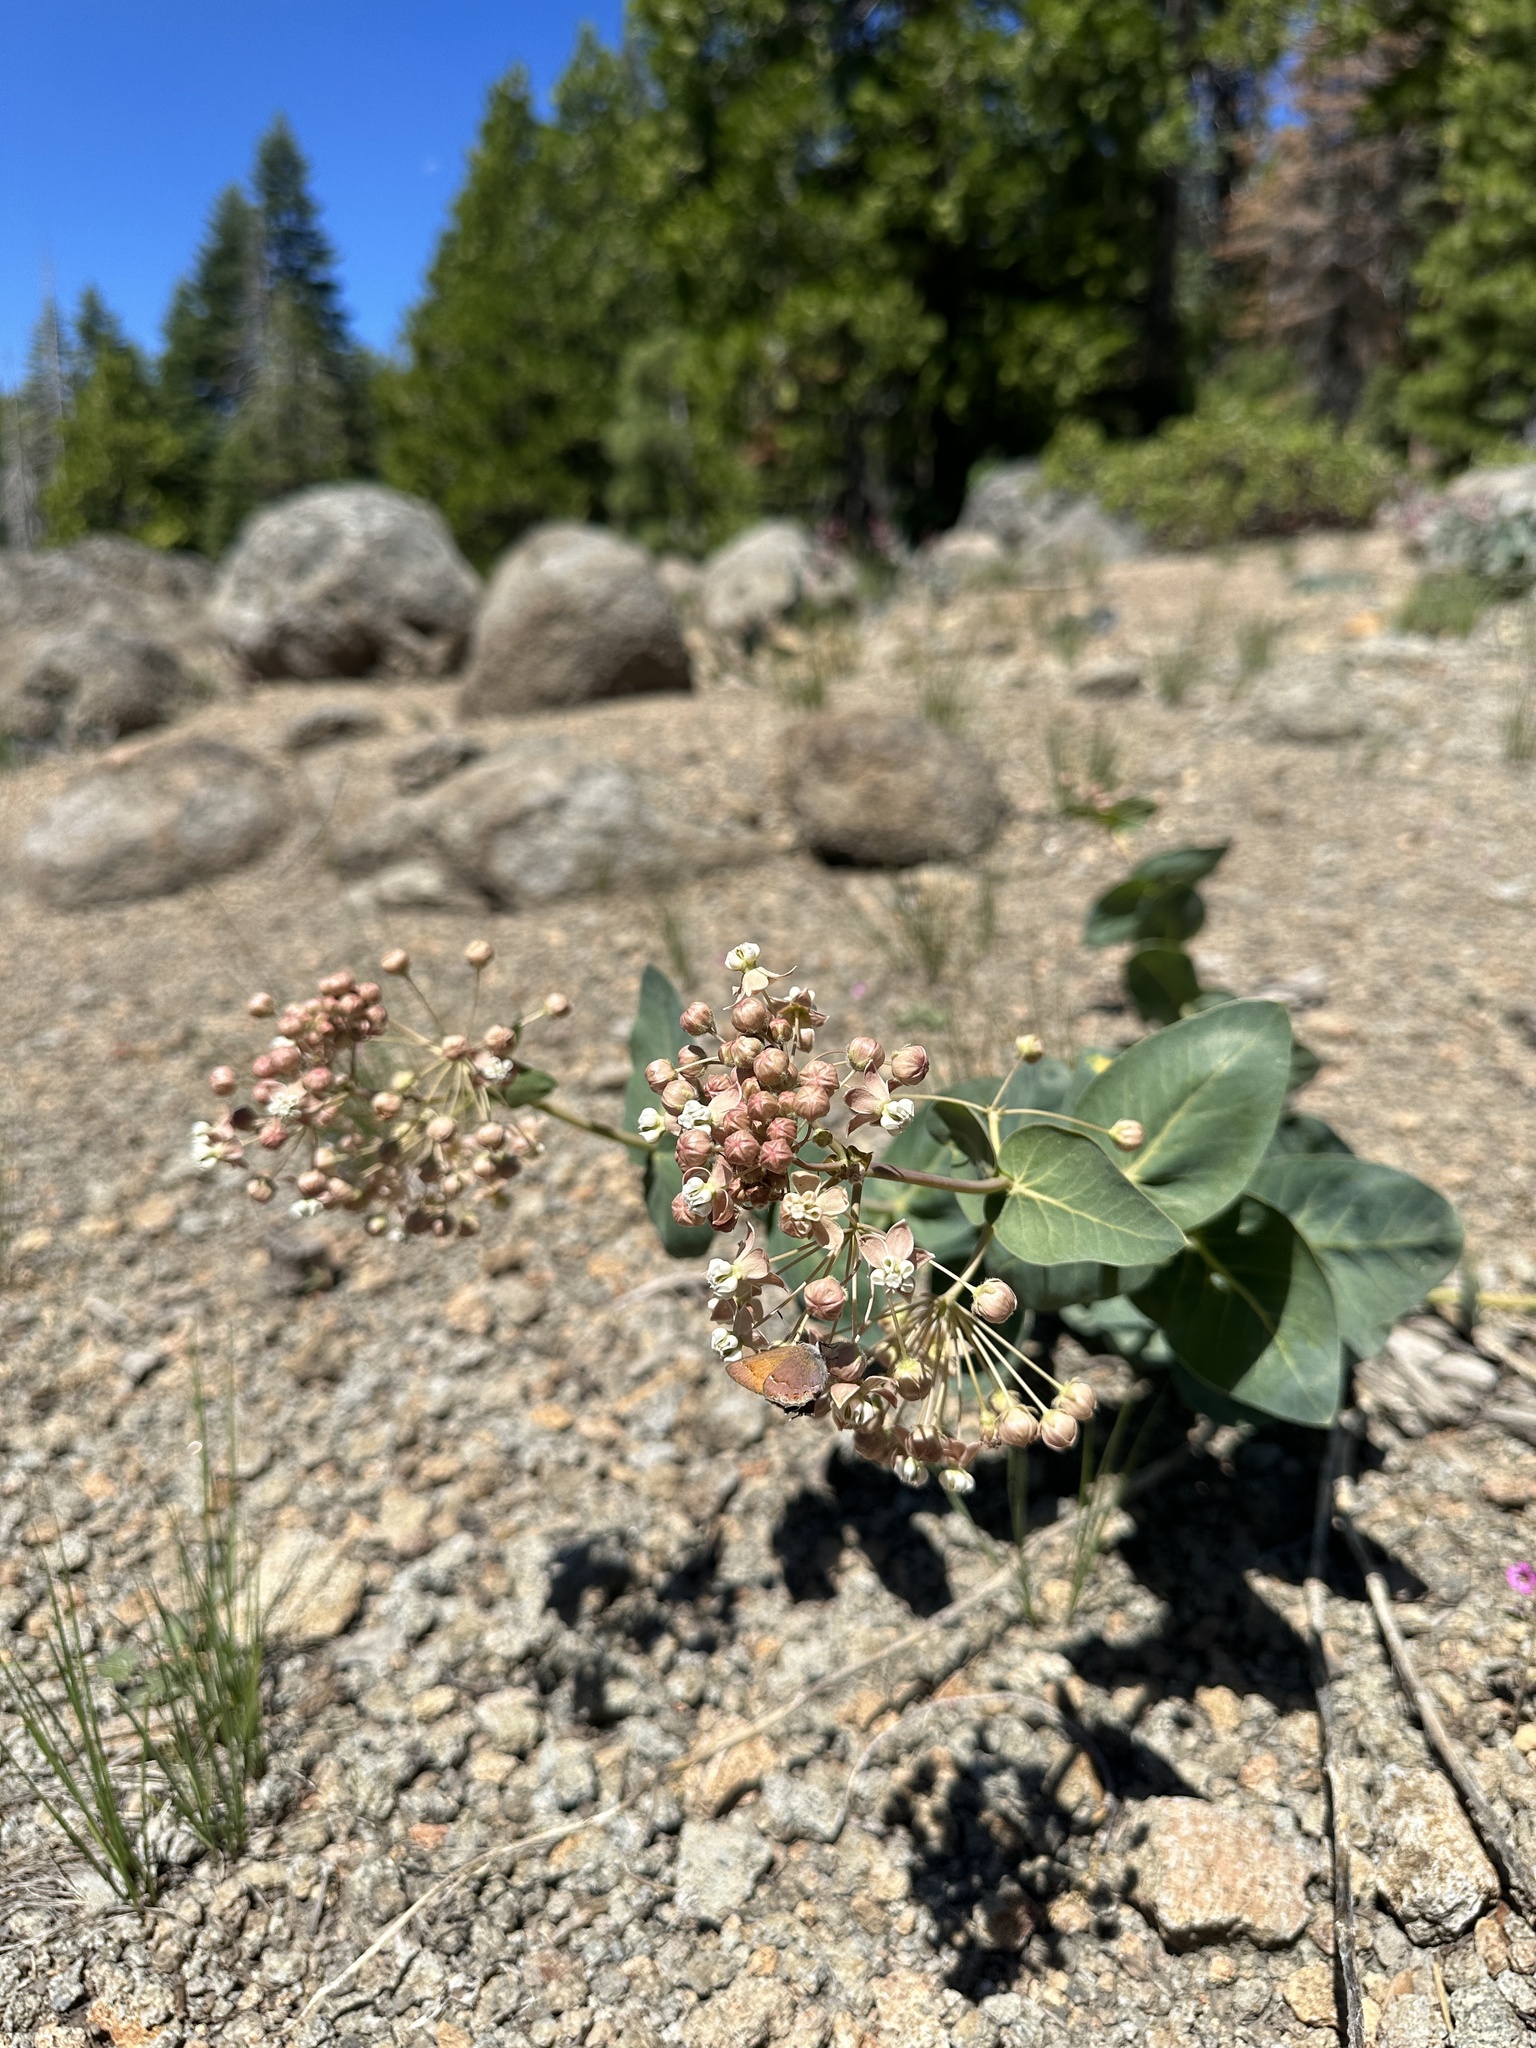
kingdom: Plantae
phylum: Tracheophyta
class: Magnoliopsida
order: Gentianales
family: Apocynaceae
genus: Asclepias
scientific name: Asclepias cordifolia
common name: Purple milkweed
